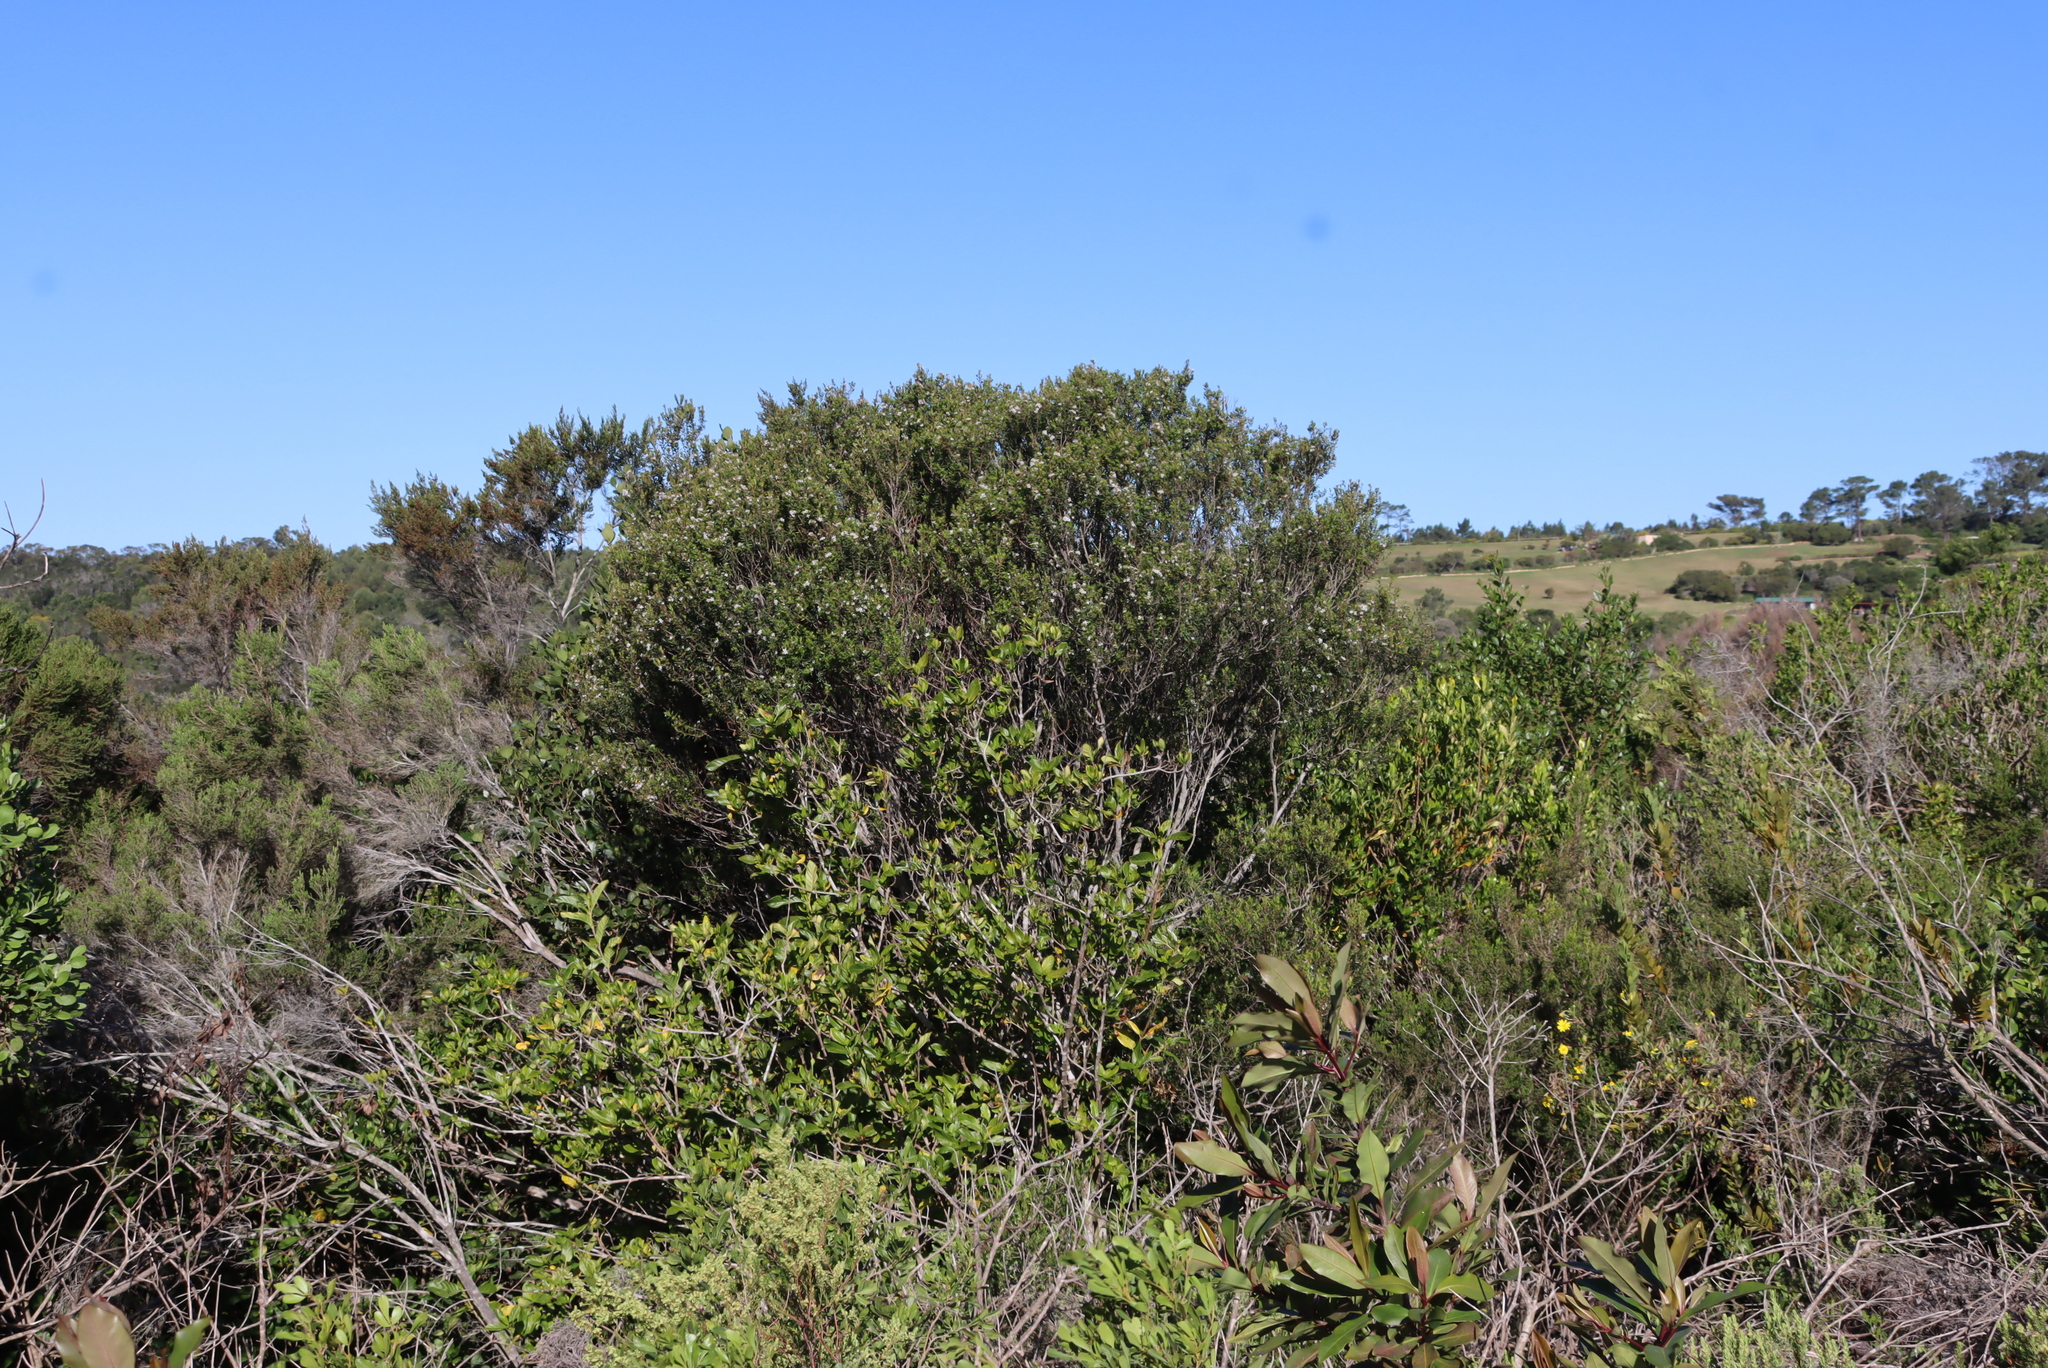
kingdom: Plantae
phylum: Tracheophyta
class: Magnoliopsida
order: Sapindales
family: Rutaceae
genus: Agathosma
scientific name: Agathosma ovata
